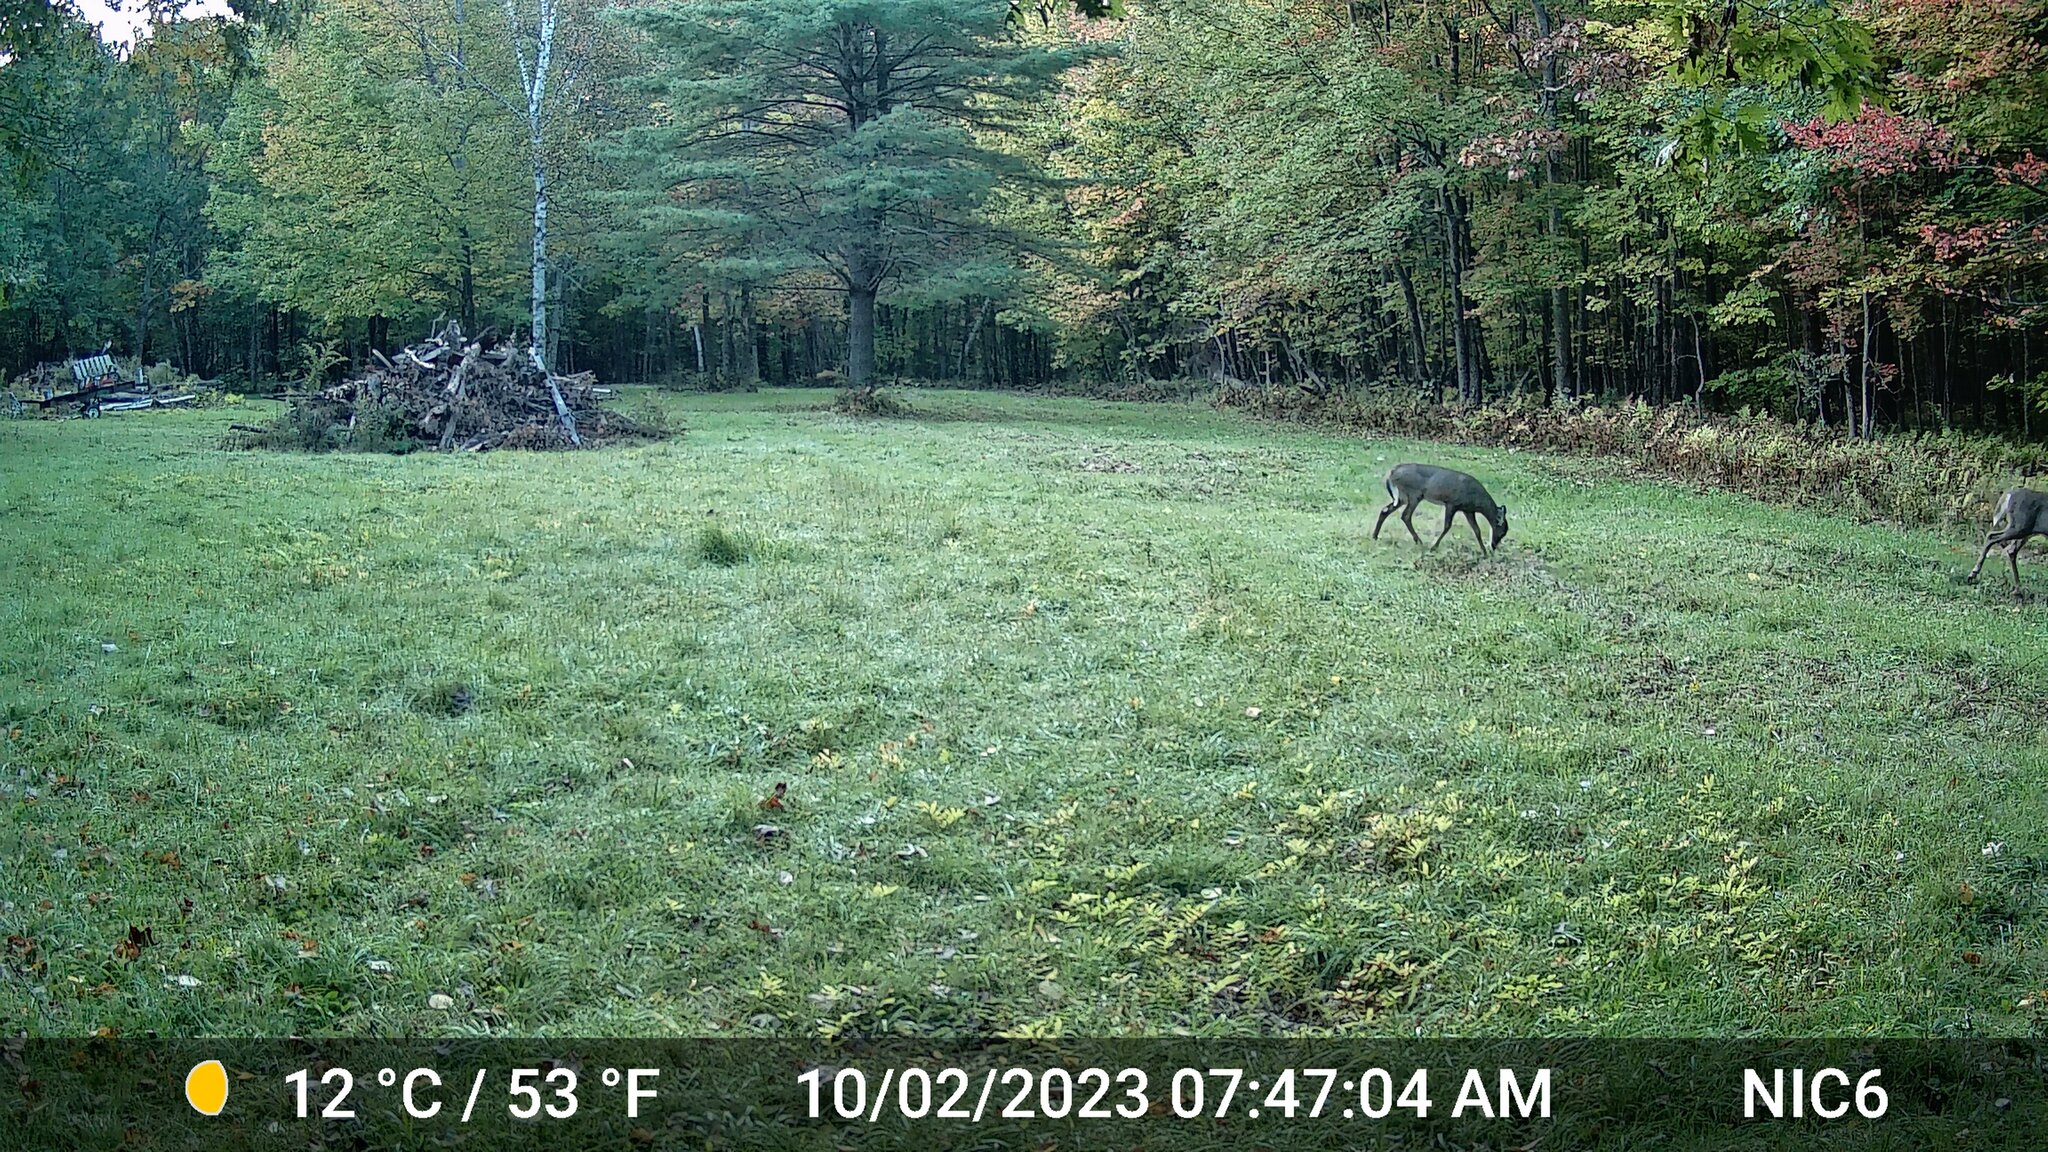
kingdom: Animalia
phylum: Chordata
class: Mammalia
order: Artiodactyla
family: Cervidae
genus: Odocoileus
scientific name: Odocoileus virginianus
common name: White-tailed deer
